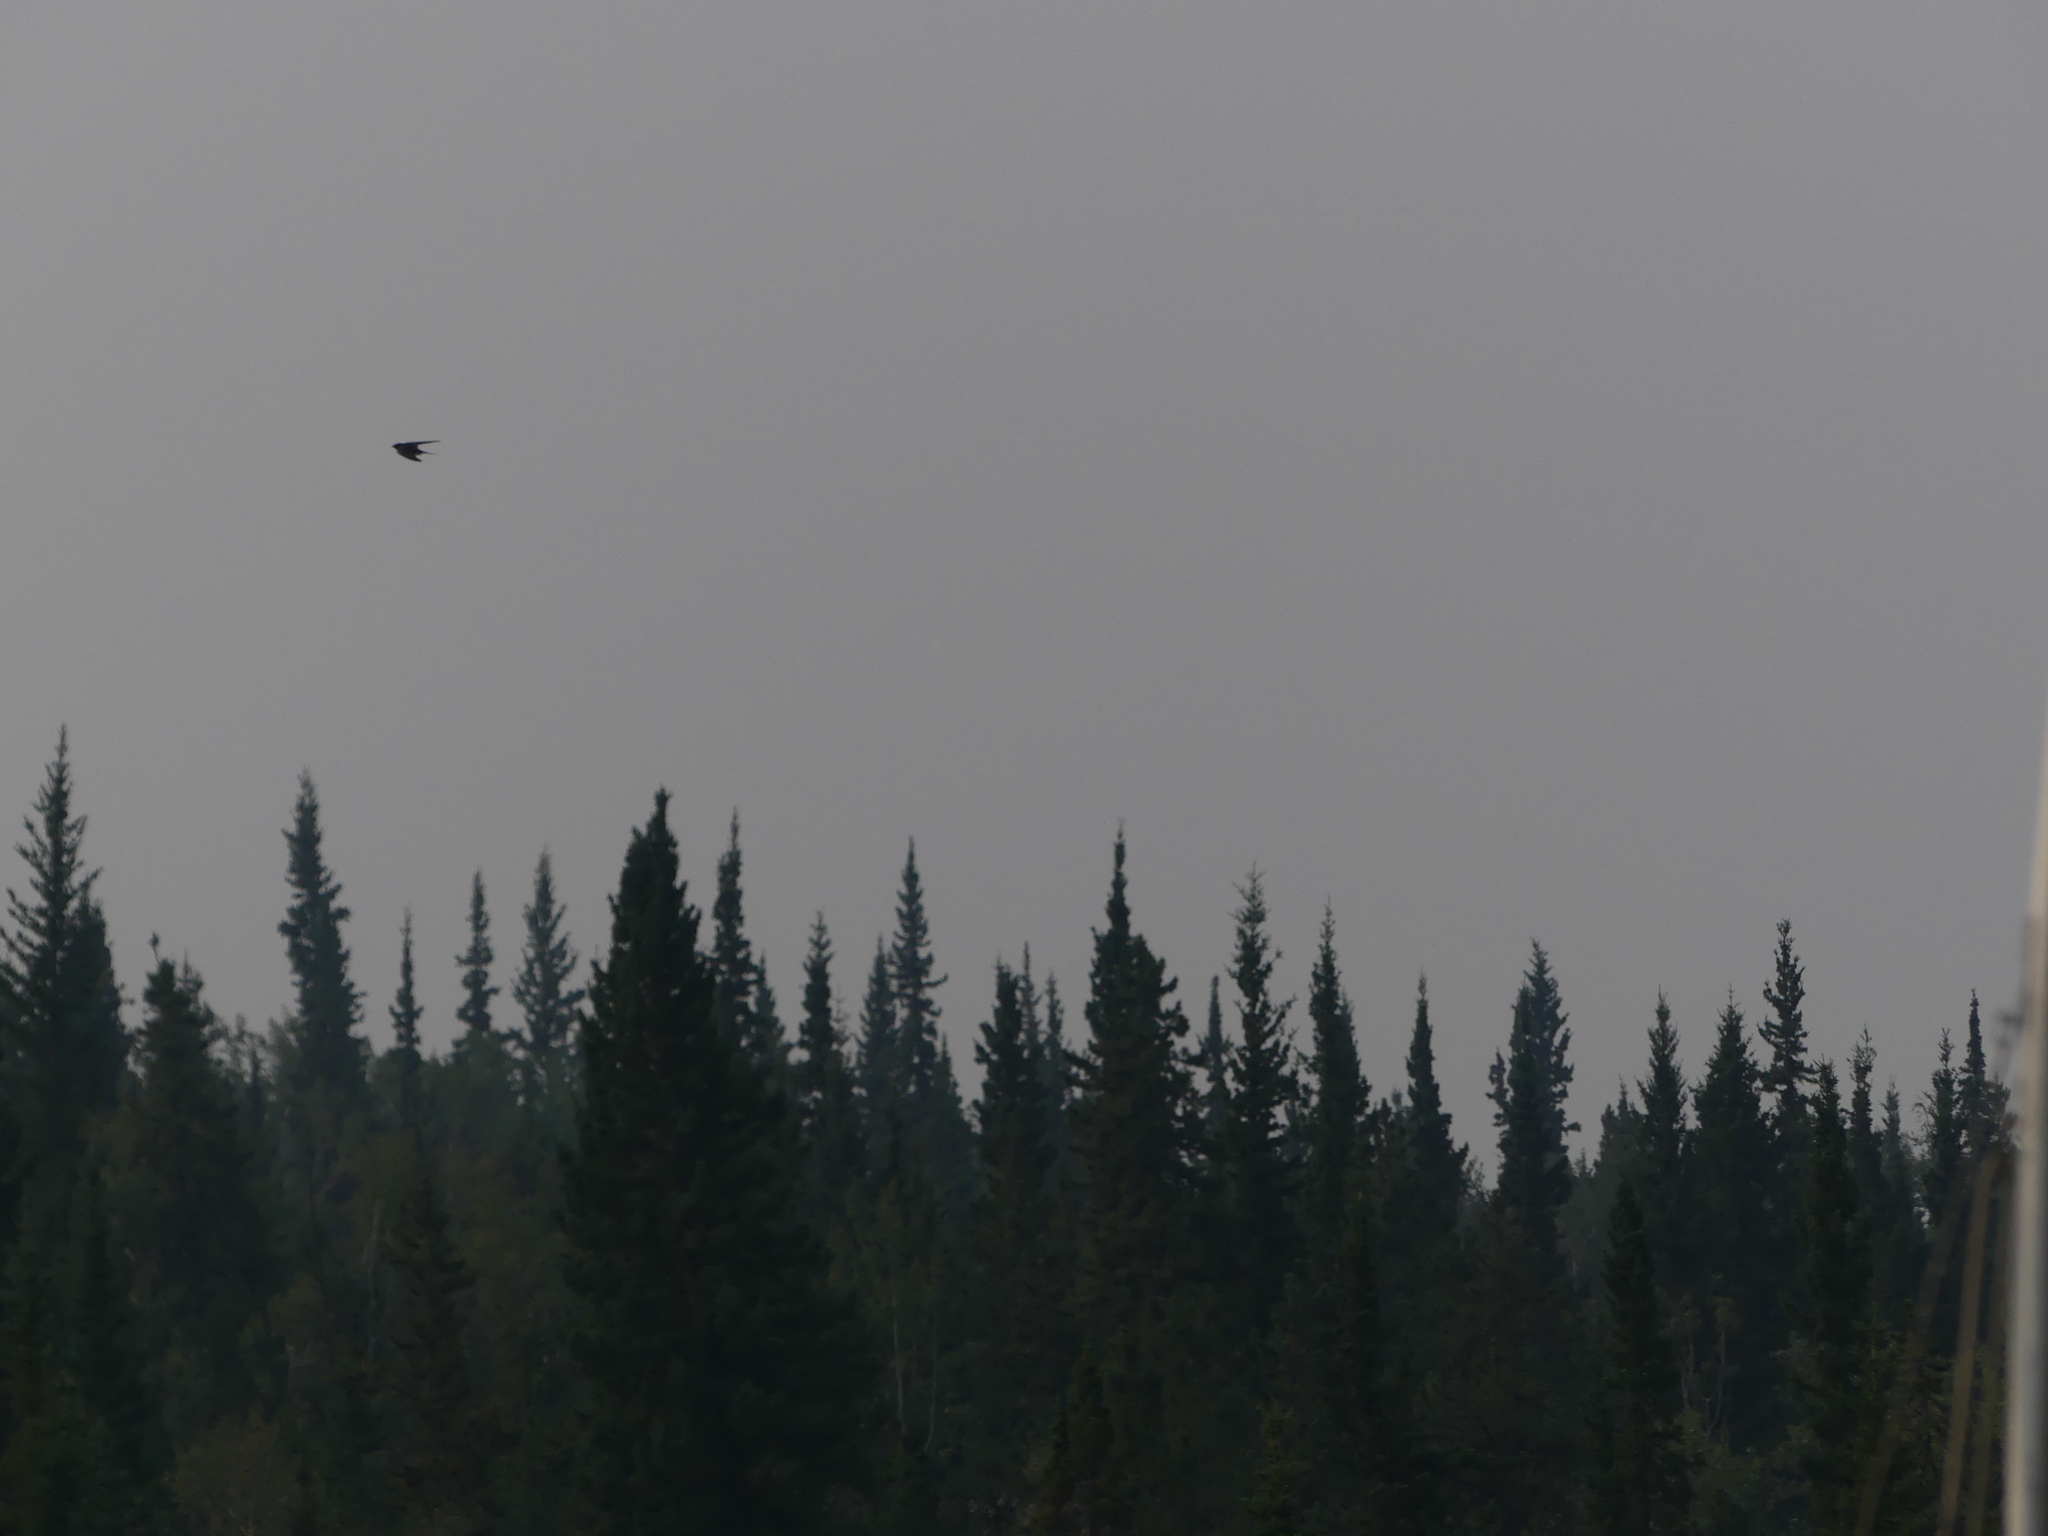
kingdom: Animalia
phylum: Chordata
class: Aves
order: Passeriformes
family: Hirundinidae
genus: Hirundo
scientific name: Hirundo rustica
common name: Barn swallow
